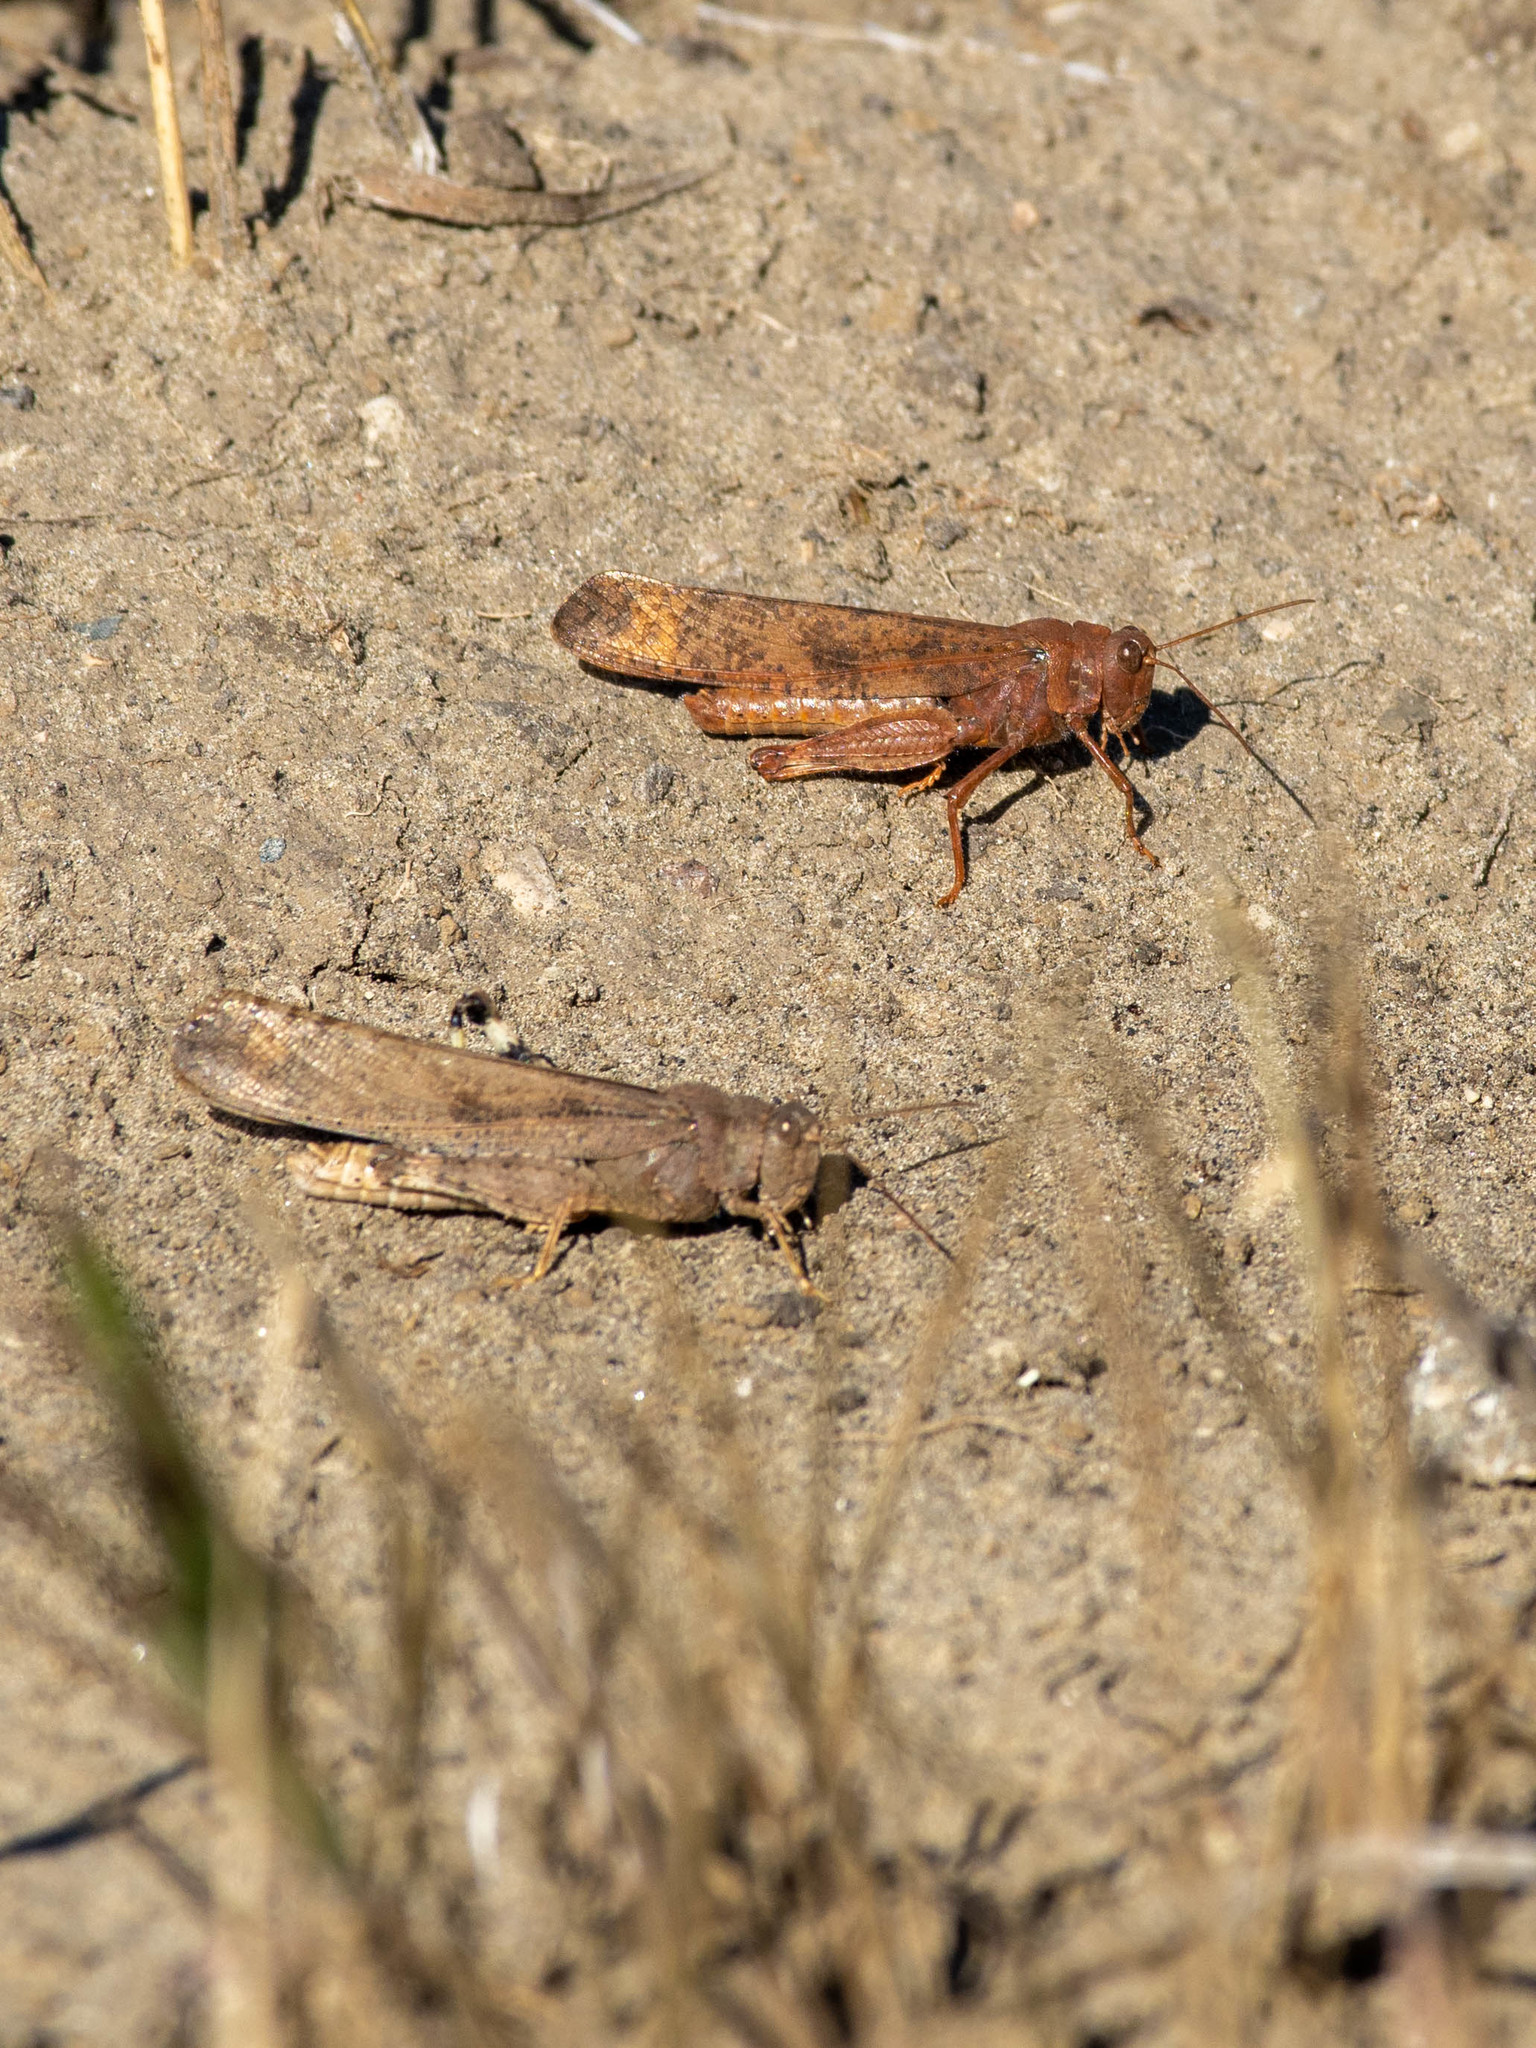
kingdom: Animalia
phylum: Arthropoda
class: Insecta
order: Orthoptera
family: Acrididae
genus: Dissosteira
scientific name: Dissosteira carolina
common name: Carolina grasshopper
